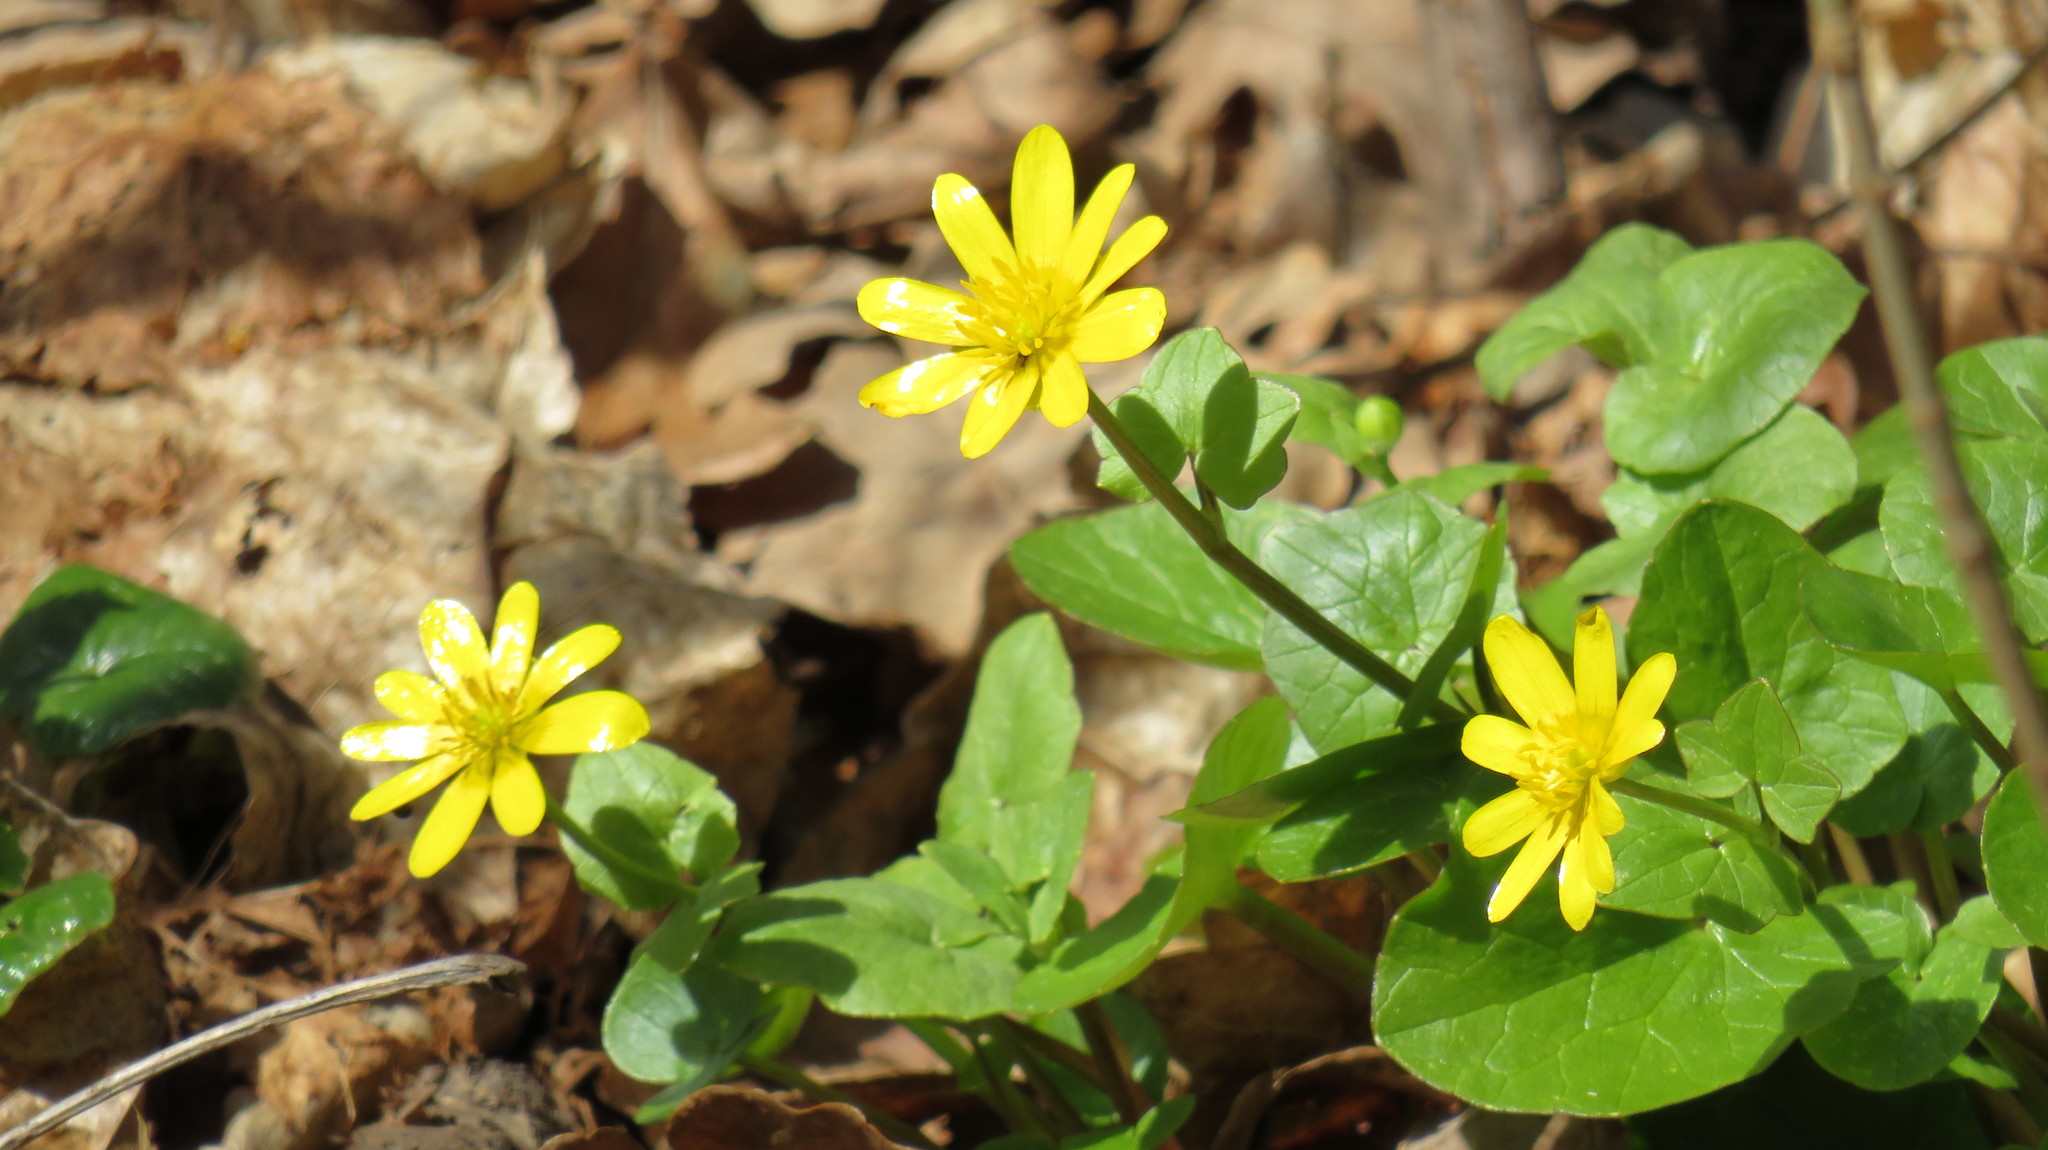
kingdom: Plantae
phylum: Tracheophyta
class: Magnoliopsida
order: Ranunculales
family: Ranunculaceae
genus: Ficaria
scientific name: Ficaria verna
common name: Lesser celandine
